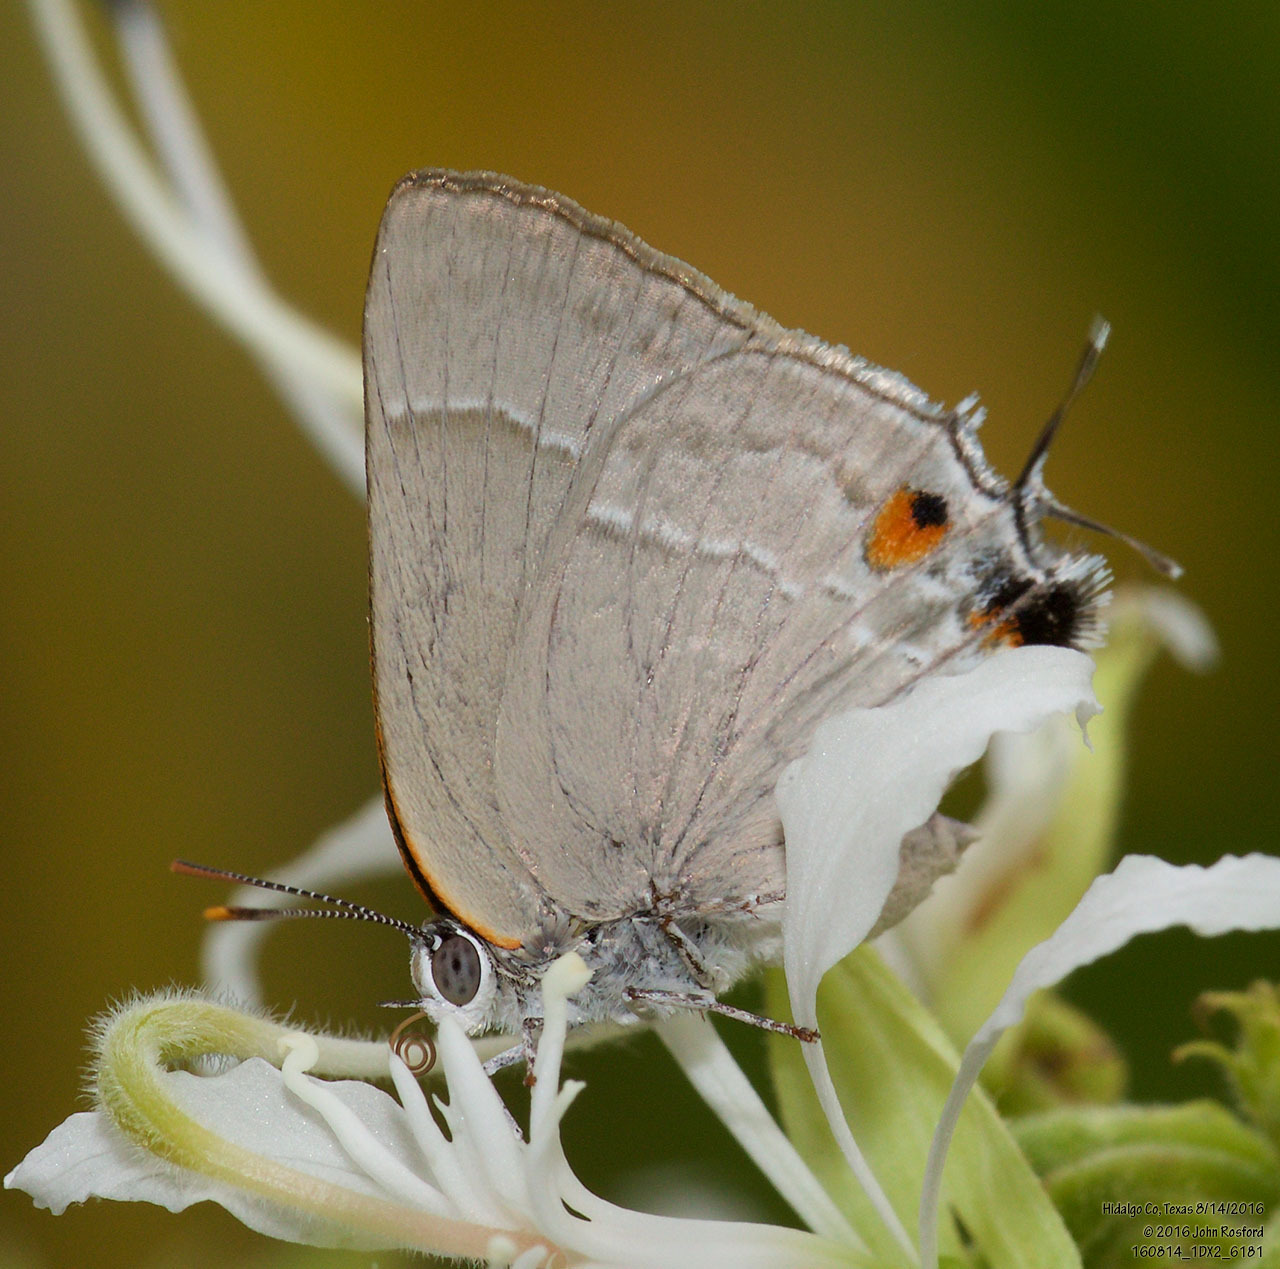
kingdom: Animalia
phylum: Arthropoda
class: Insecta
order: Lepidoptera
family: Lycaenidae
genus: Thecla
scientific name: Thecla marius
